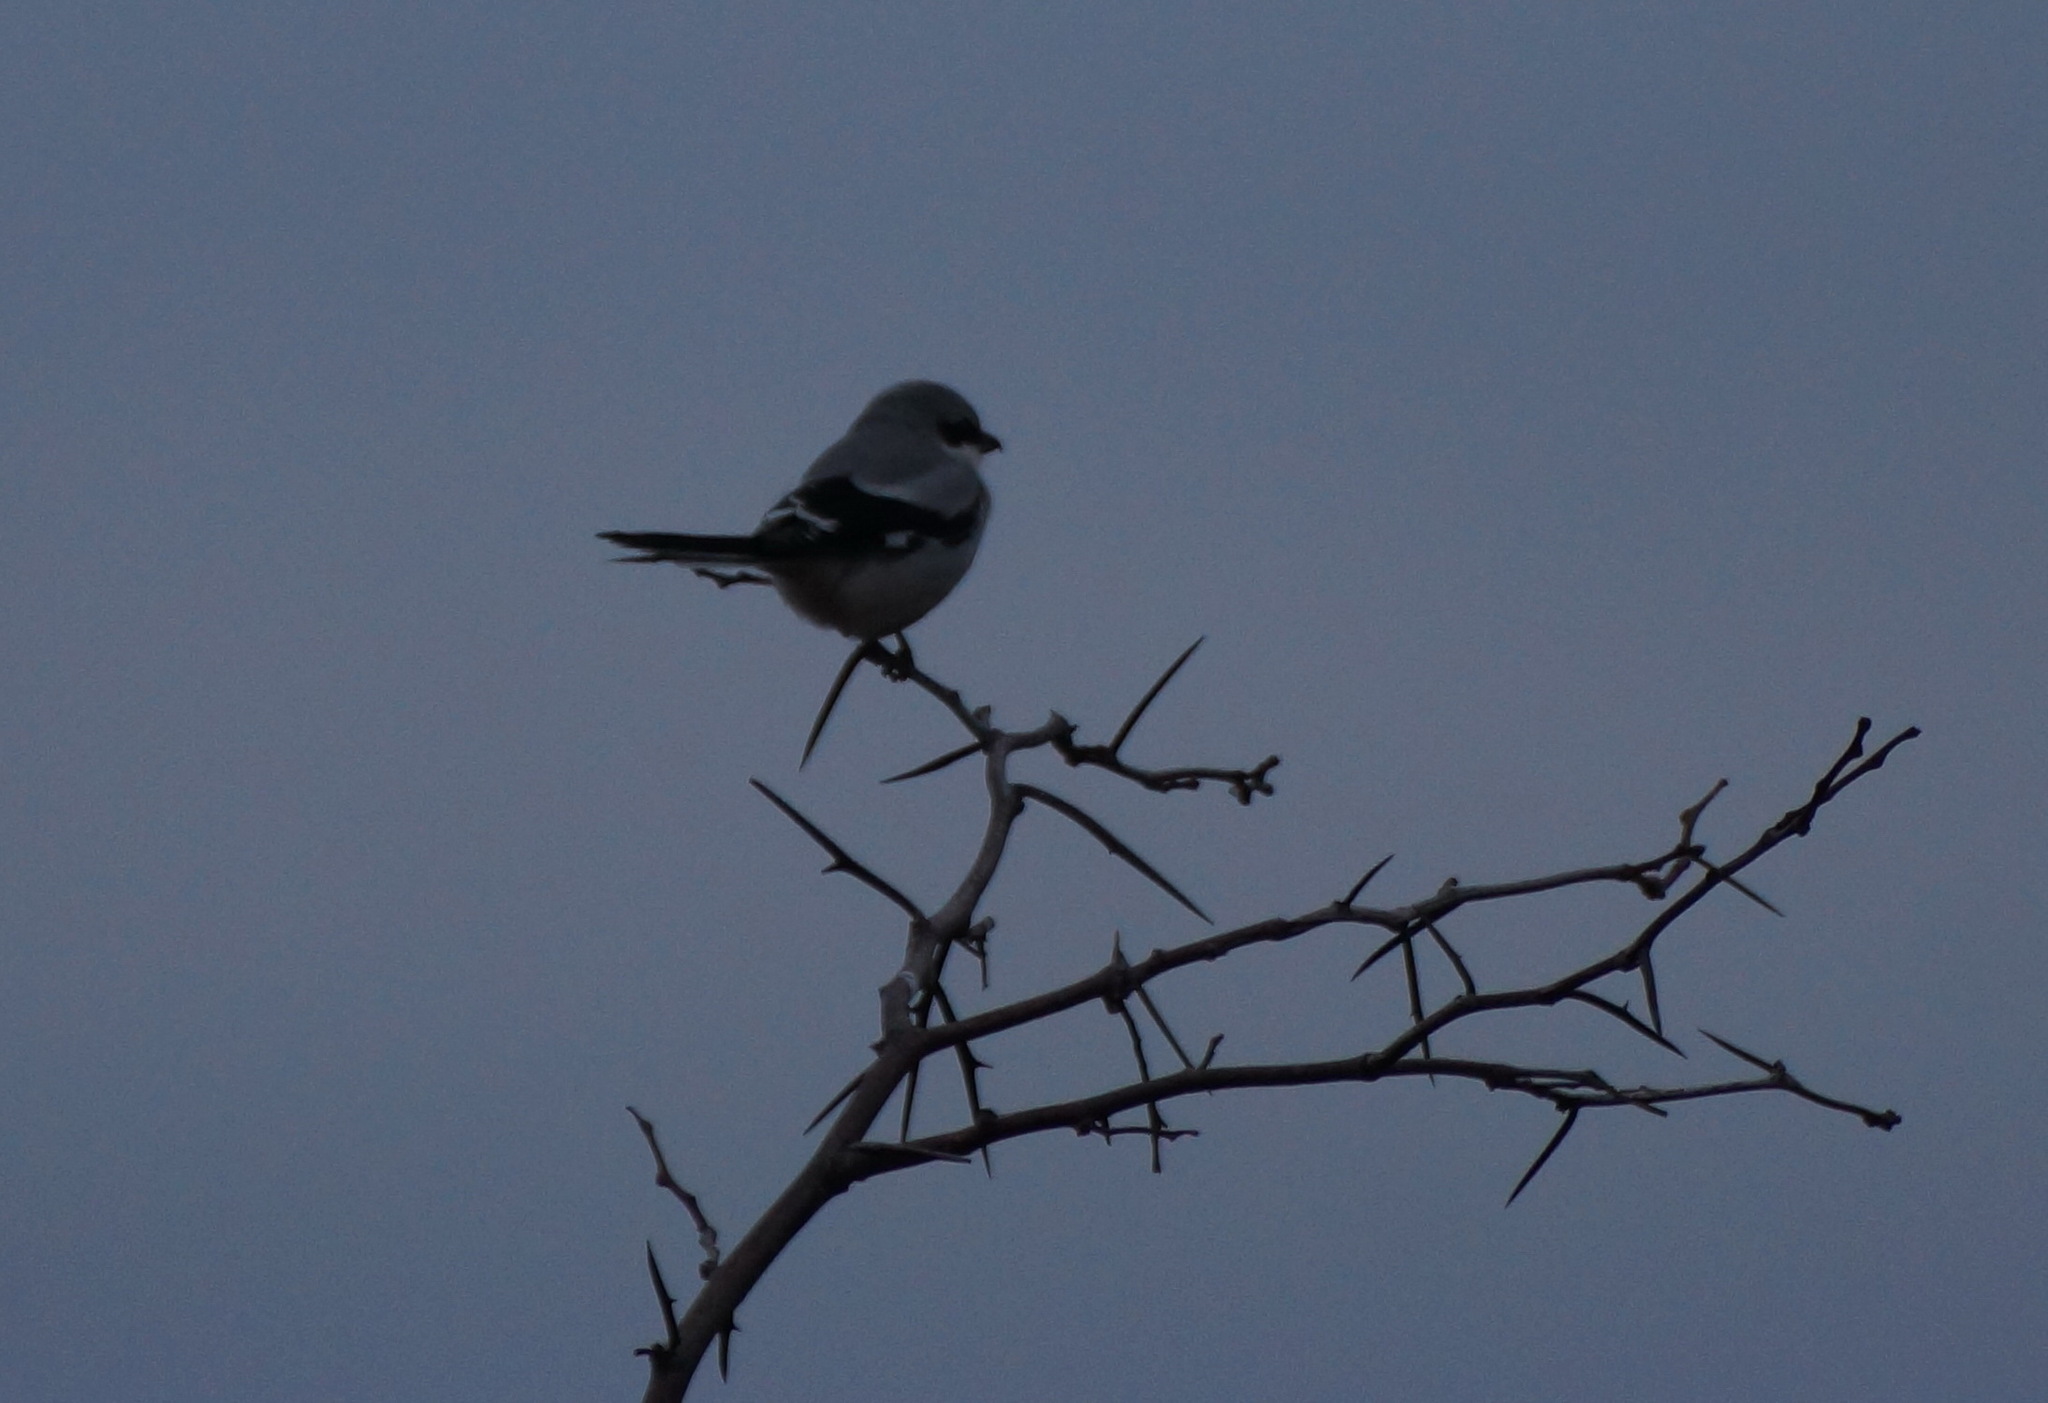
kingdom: Animalia
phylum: Chordata
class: Aves
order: Passeriformes
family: Laniidae
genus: Lanius
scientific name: Lanius excubitor
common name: Great grey shrike
